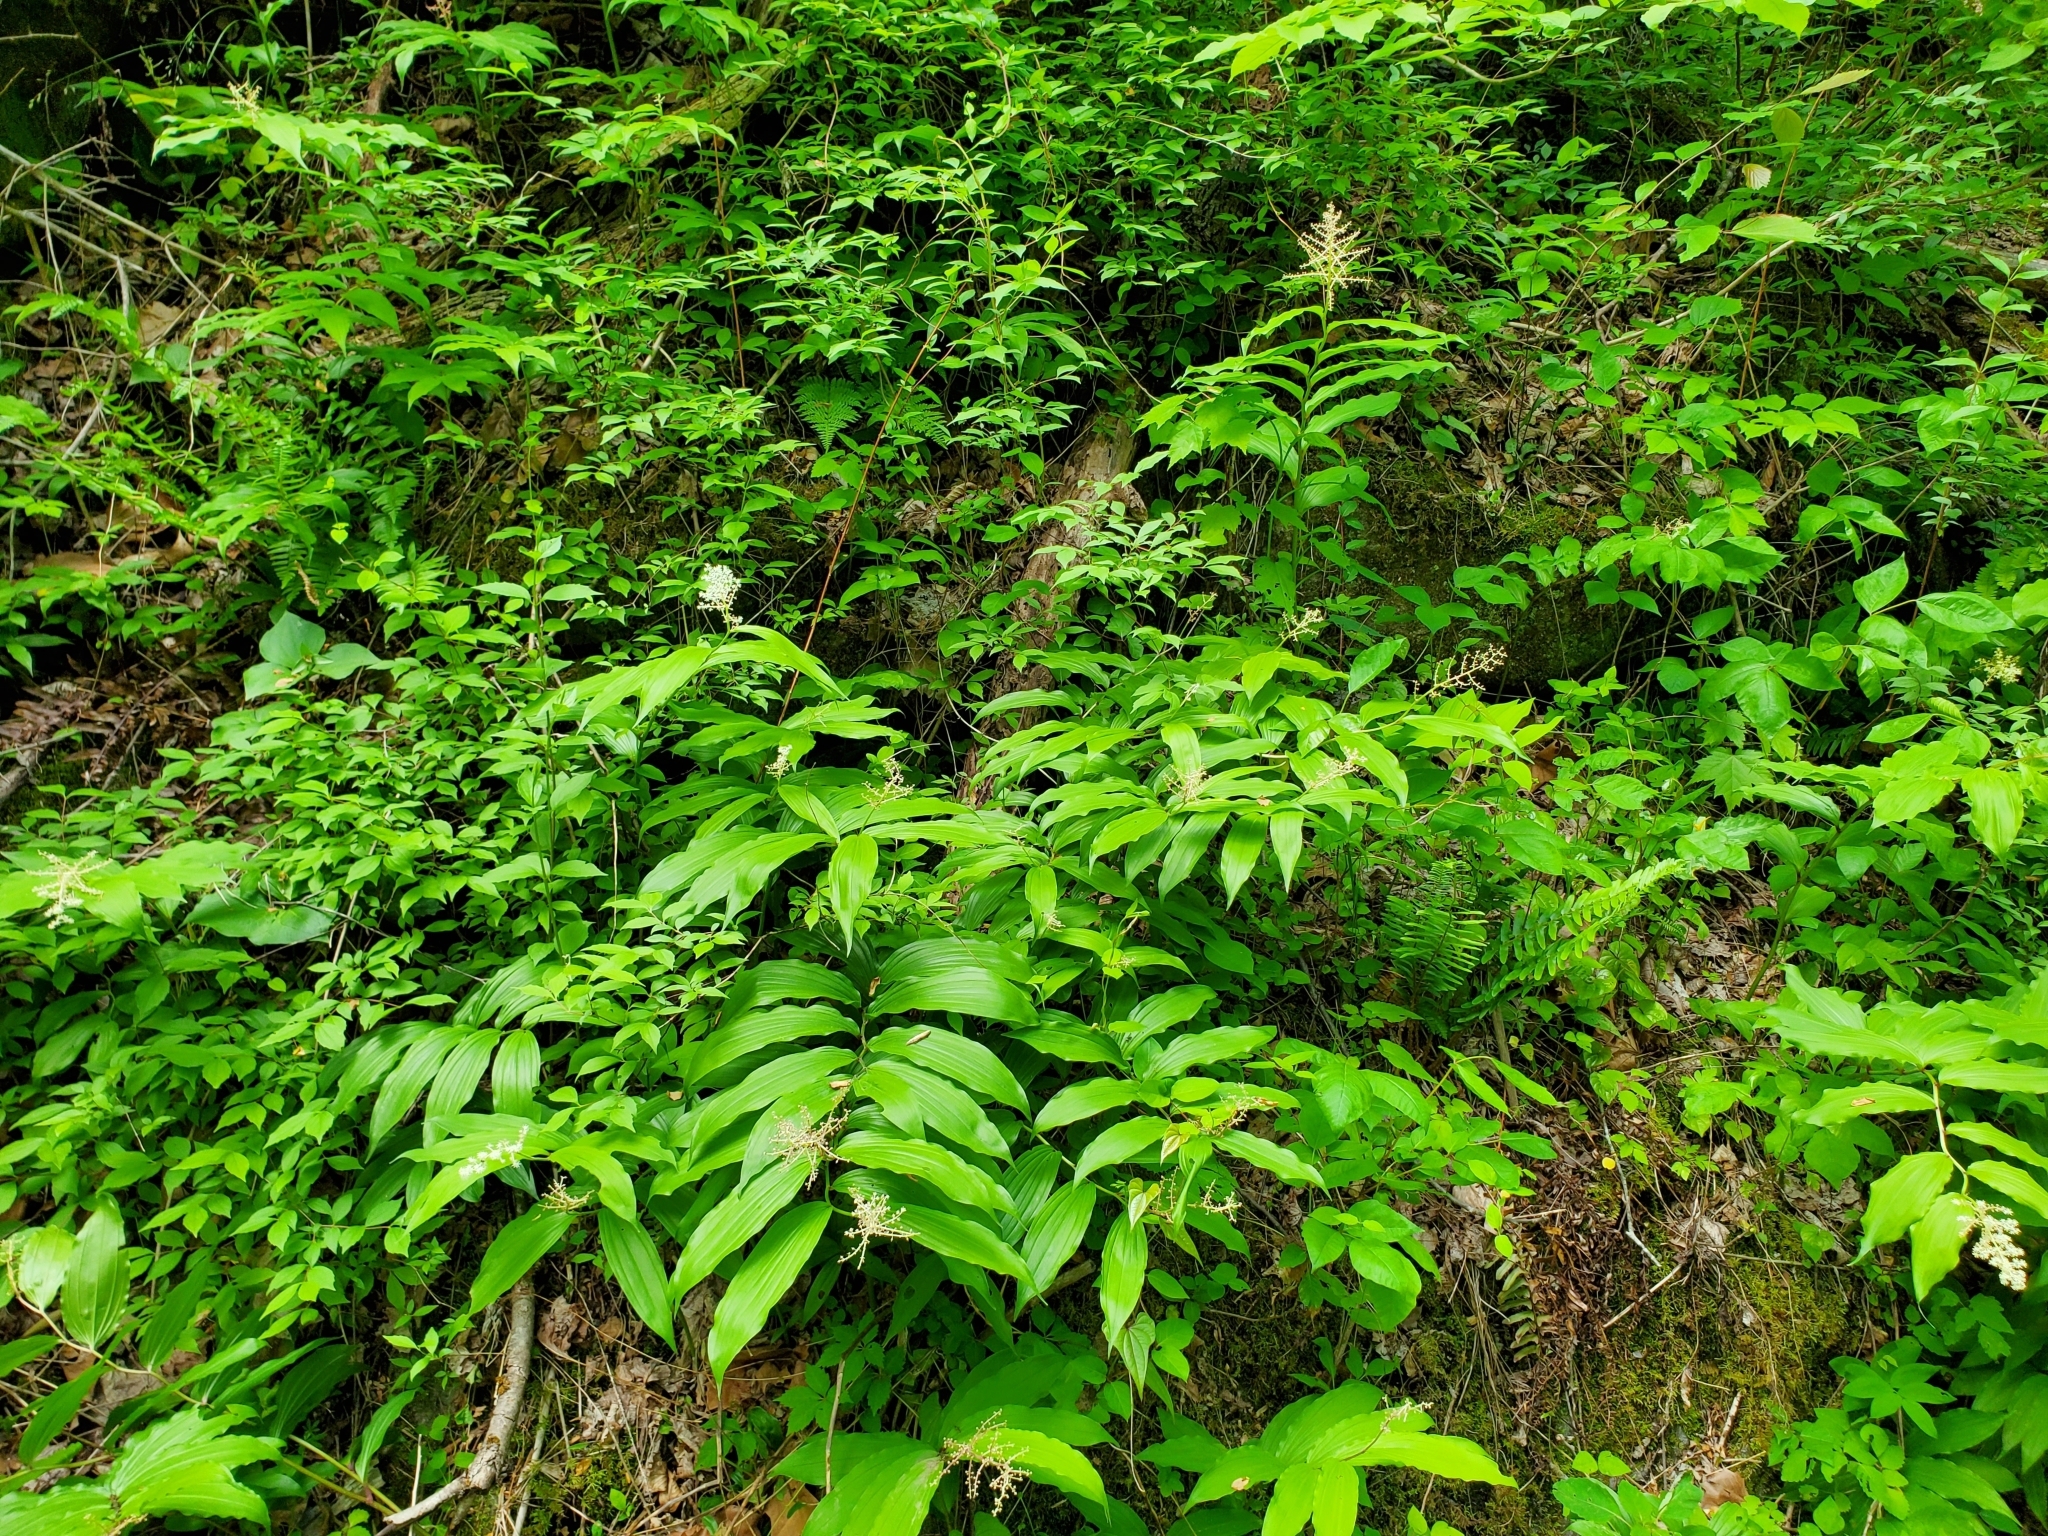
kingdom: Plantae
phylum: Tracheophyta
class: Liliopsida
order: Asparagales
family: Asparagaceae
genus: Maianthemum
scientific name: Maianthemum racemosum
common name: False spikenard
